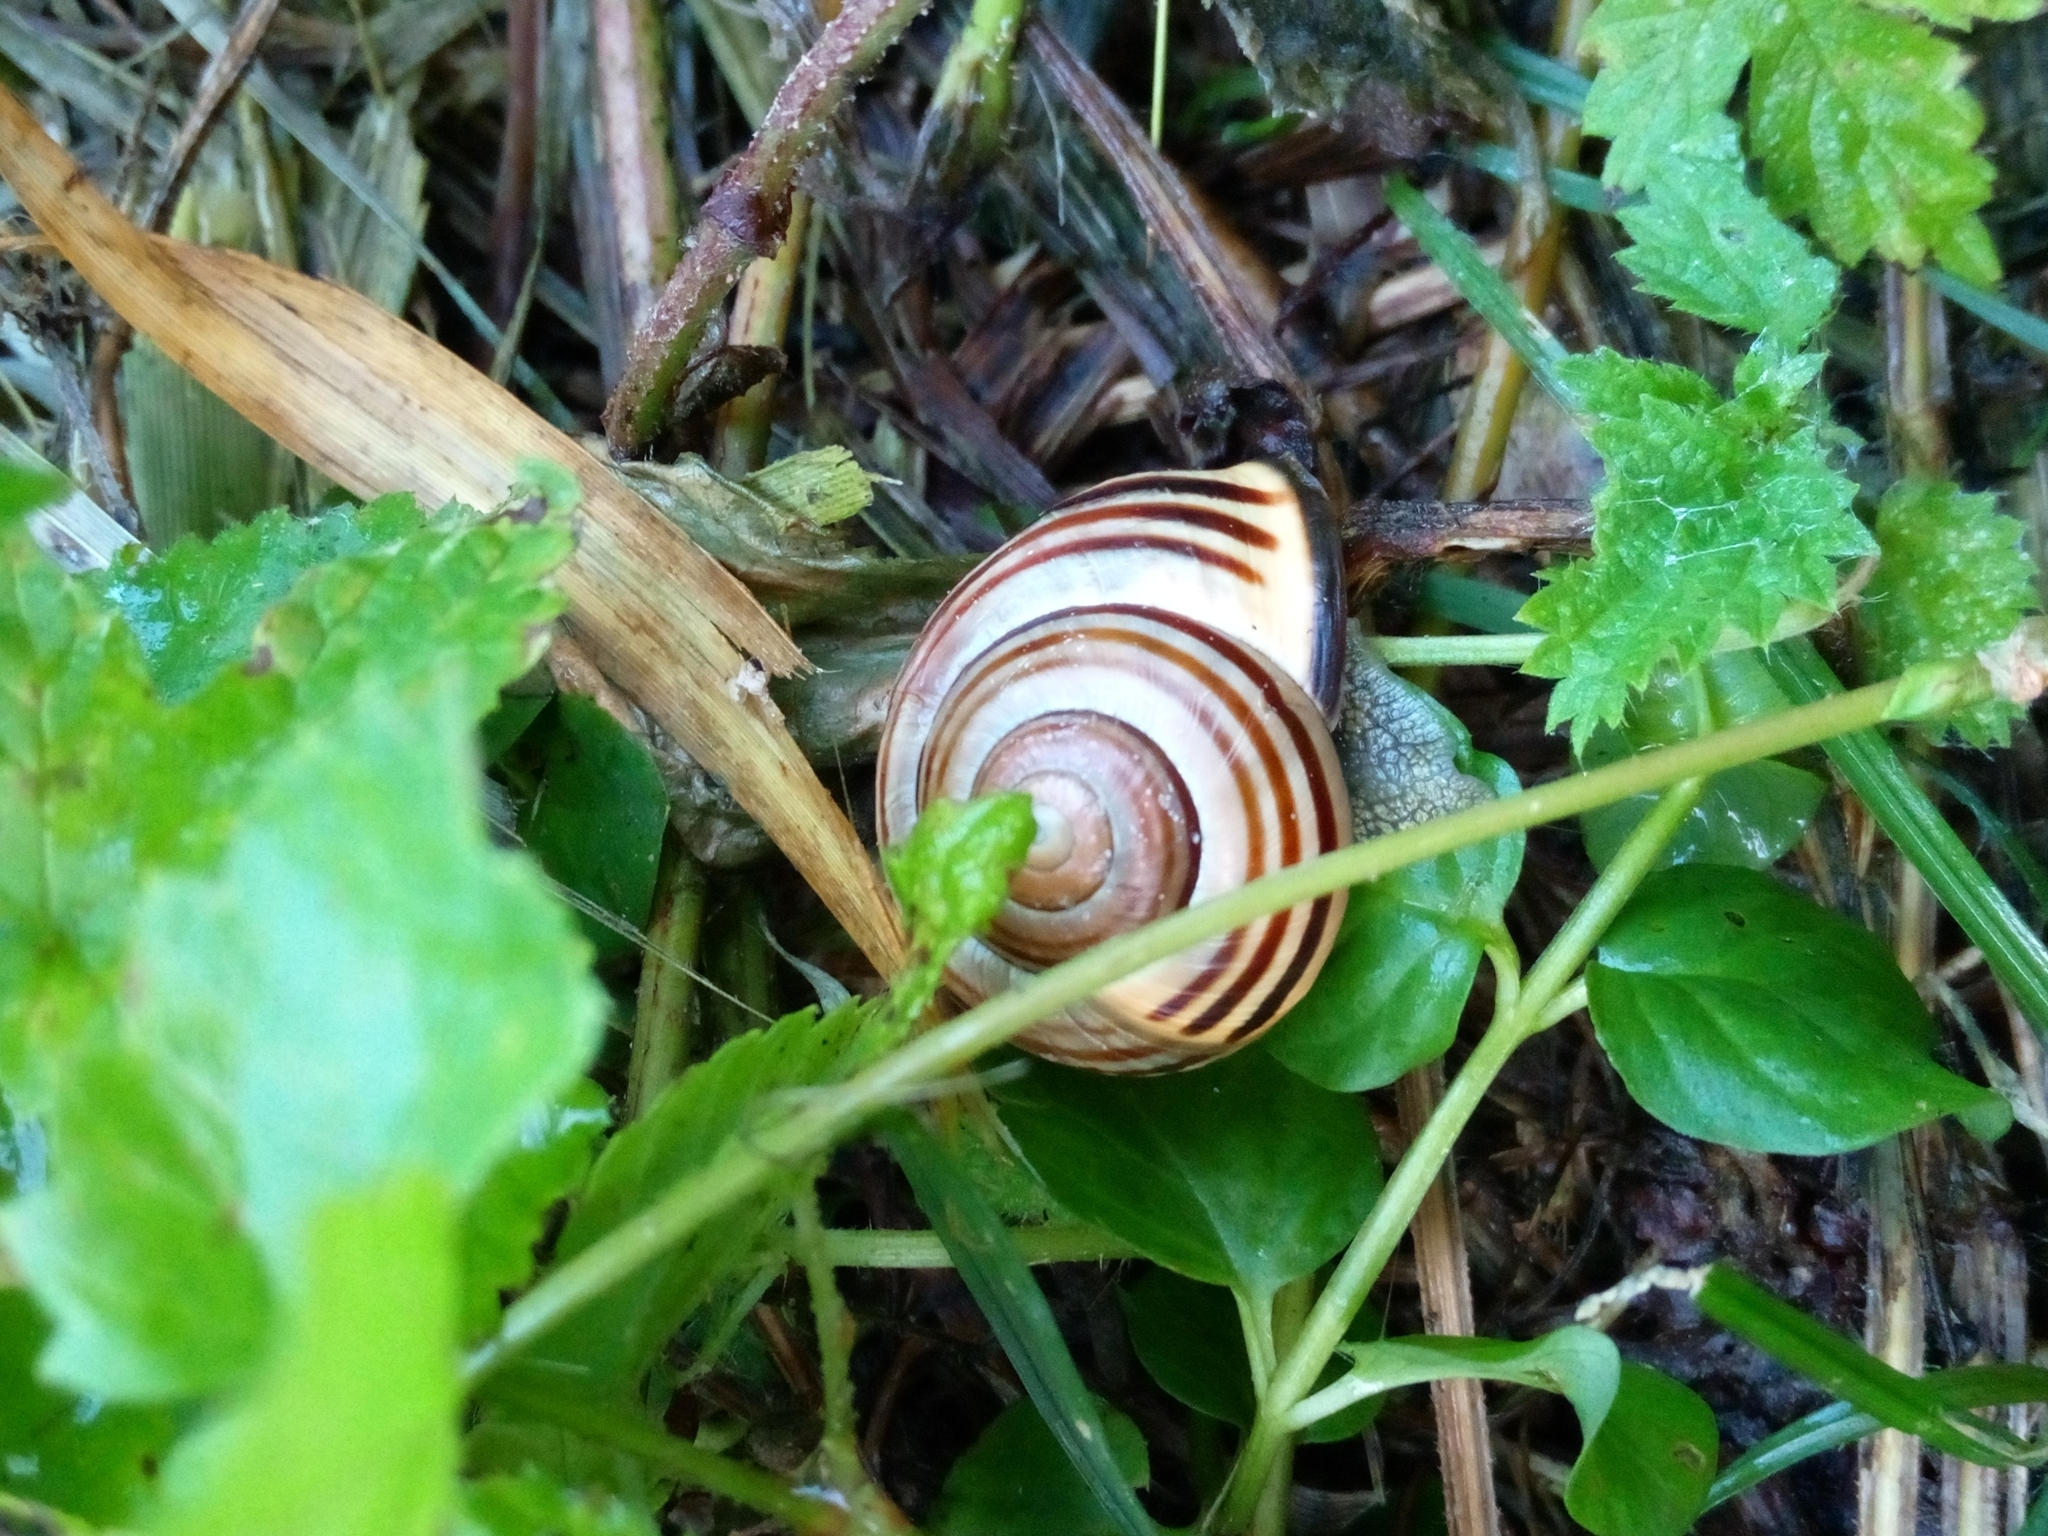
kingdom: Animalia
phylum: Mollusca
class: Gastropoda
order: Stylommatophora
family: Helicidae
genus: Cepaea
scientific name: Cepaea nemoralis
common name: Grovesnail
